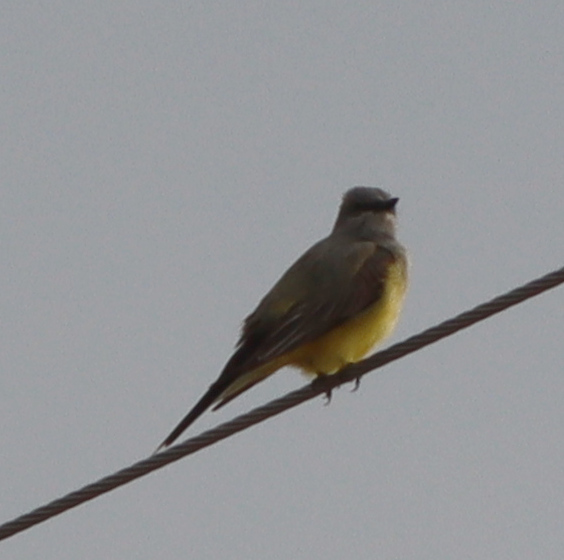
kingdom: Animalia
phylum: Chordata
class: Aves
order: Passeriformes
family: Tyrannidae
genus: Tyrannus
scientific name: Tyrannus verticalis
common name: Western kingbird
